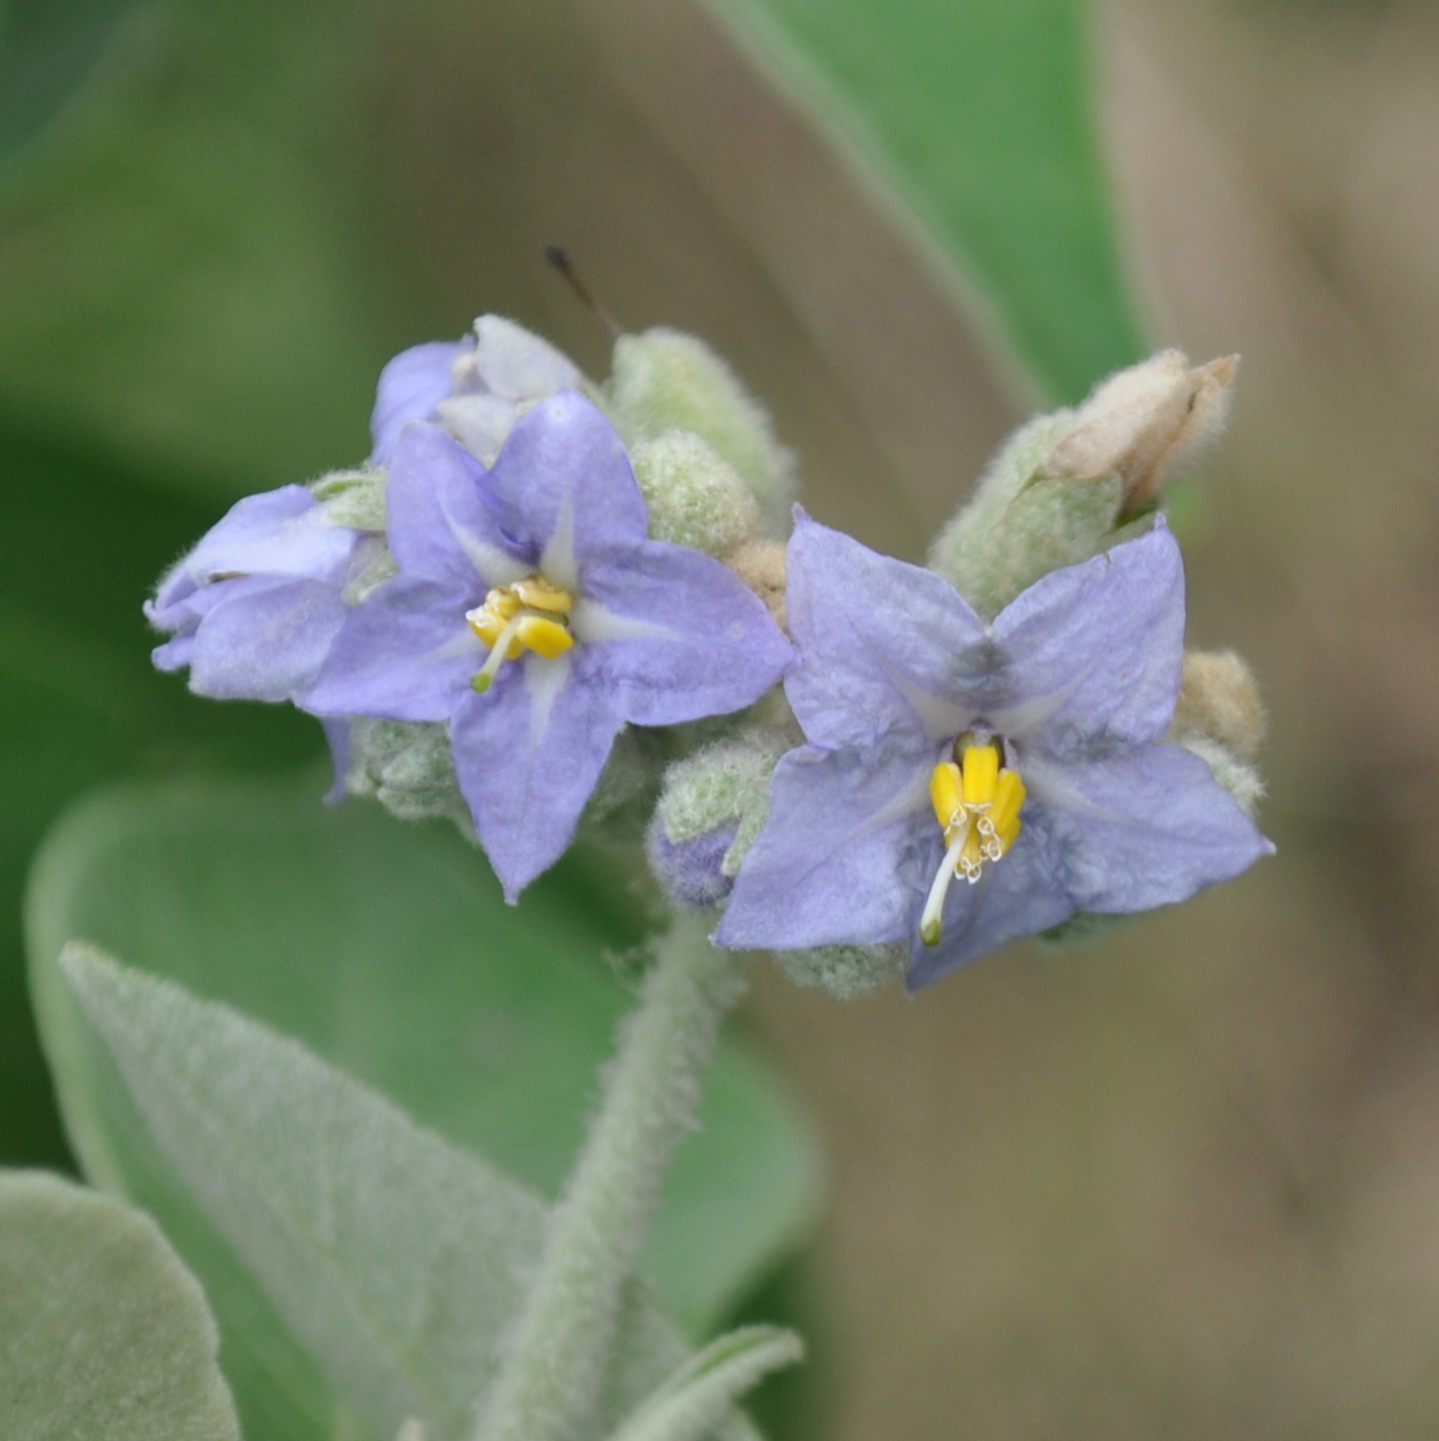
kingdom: Plantae
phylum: Tracheophyta
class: Magnoliopsida
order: Solanales
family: Solanaceae
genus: Solanum
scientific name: Solanum mauritianum
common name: Earleaf nightshade
